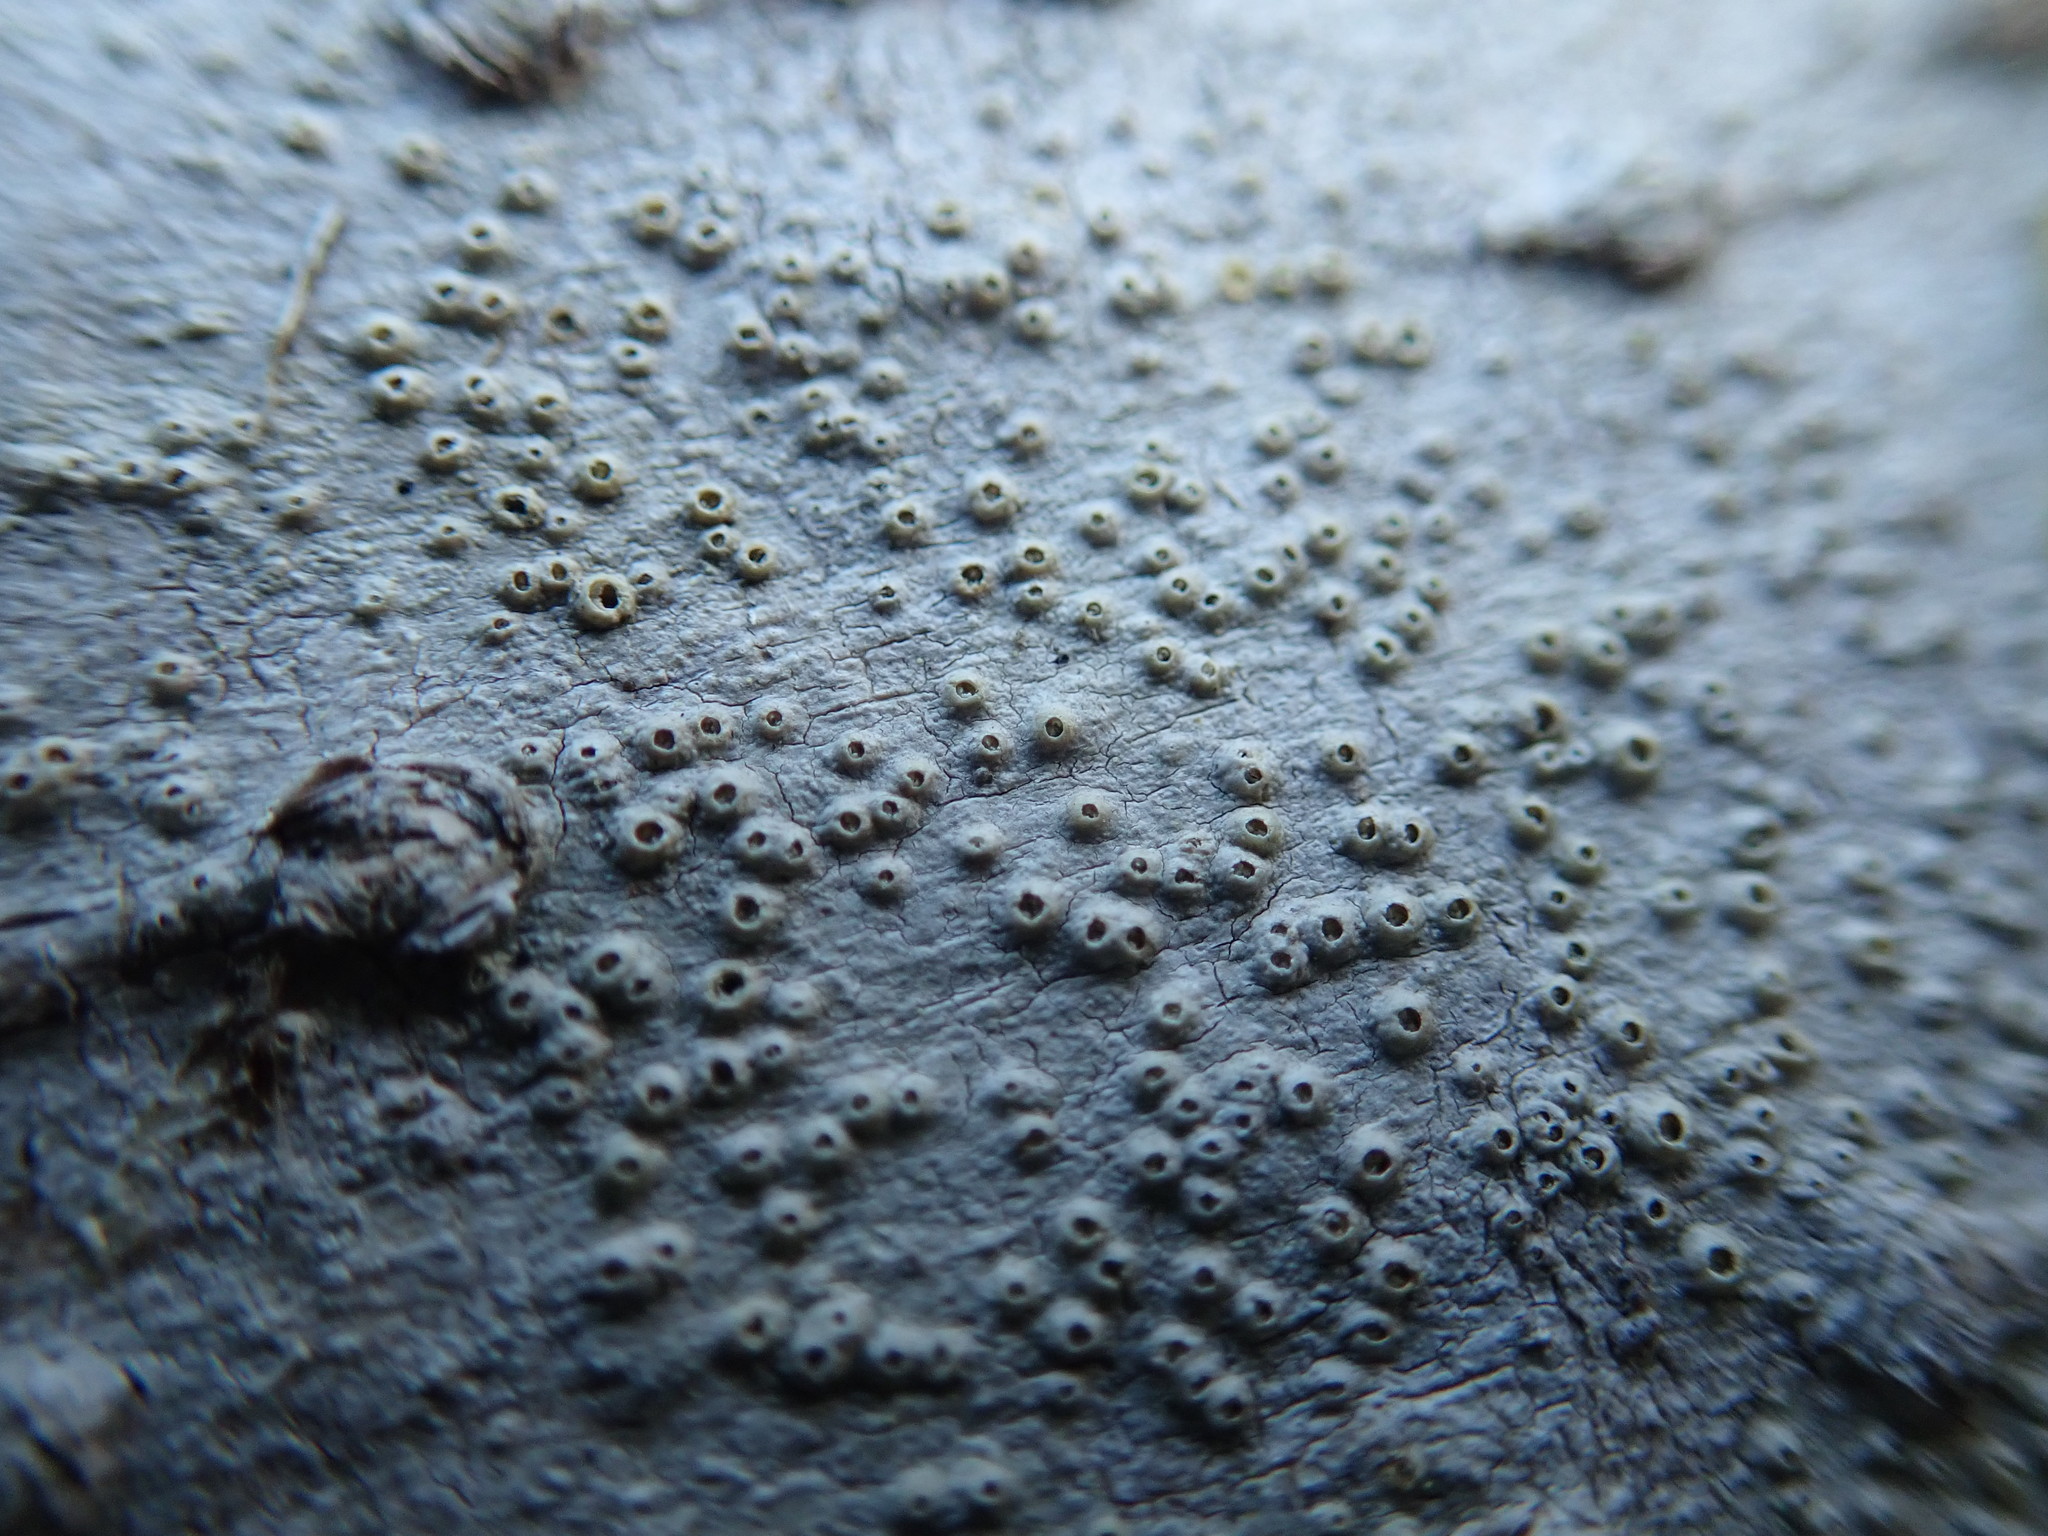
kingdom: Fungi
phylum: Ascomycota
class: Lecanoromycetes
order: Ostropales
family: Graphidaceae
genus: Thelotrema
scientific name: Thelotrema lepadinum
